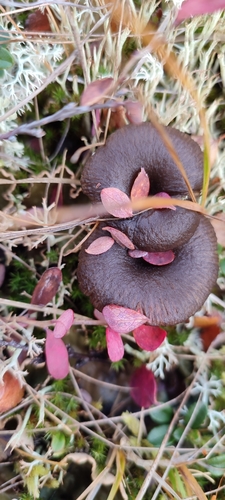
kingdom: Fungi
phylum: Basidiomycota
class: Agaricomycetes
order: Agaricales
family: Tricholomataceae
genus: Omphaliaster
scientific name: Omphaliaster
